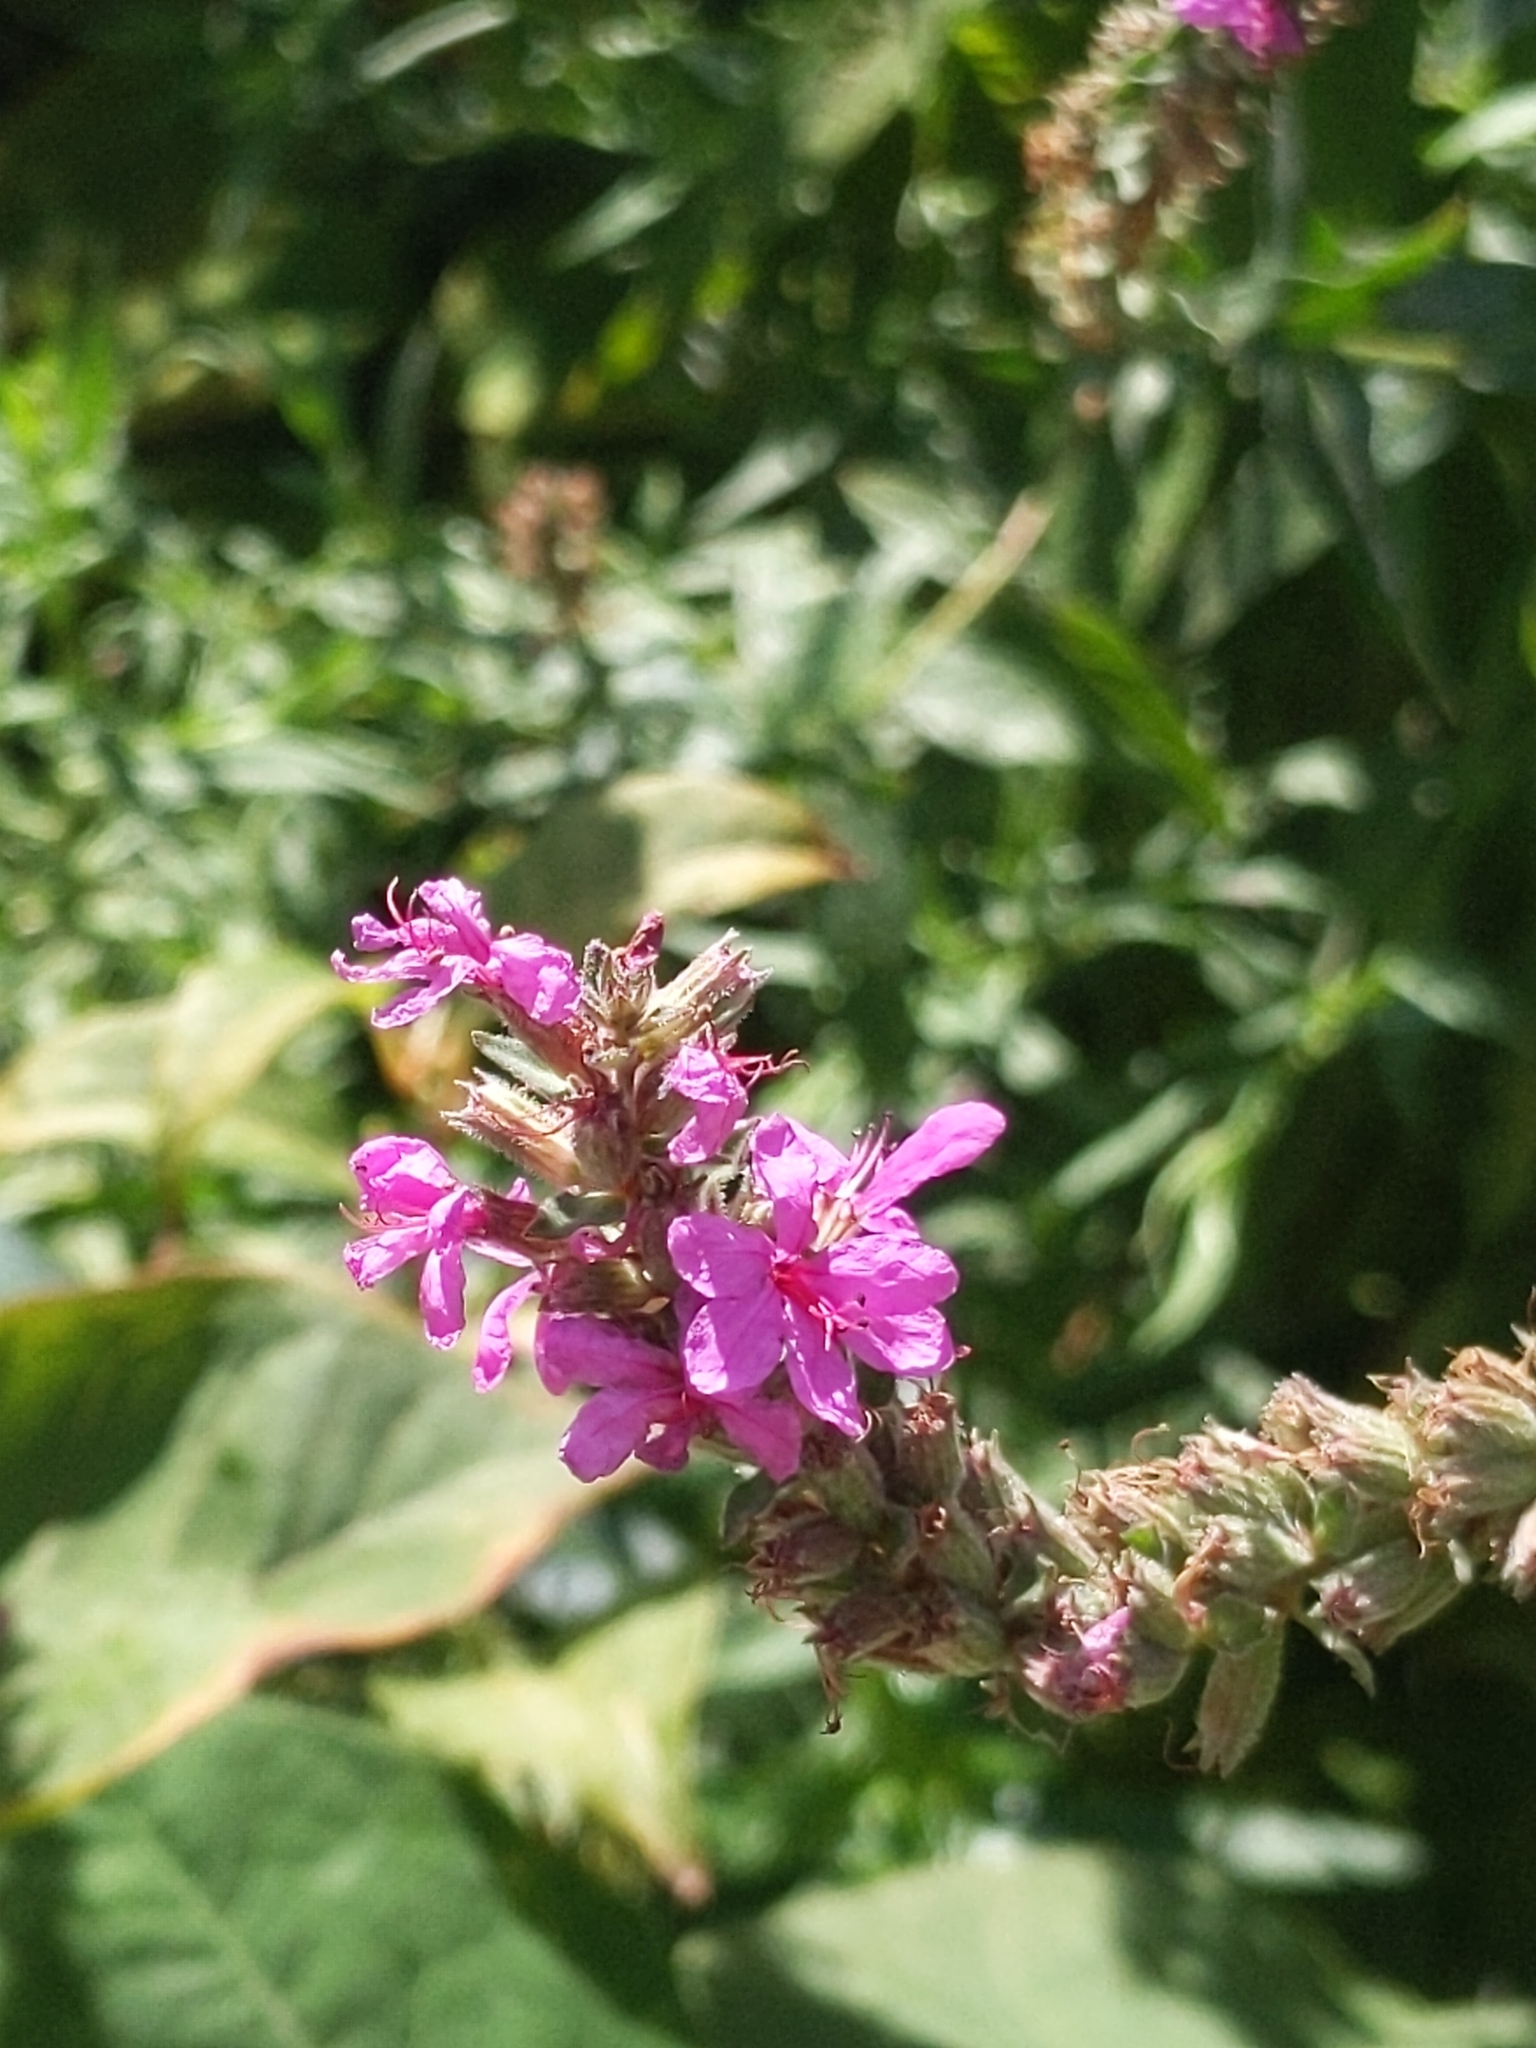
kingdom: Plantae
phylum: Tracheophyta
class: Magnoliopsida
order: Myrtales
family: Lythraceae
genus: Lythrum
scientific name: Lythrum salicaria
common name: Purple loosestrife
